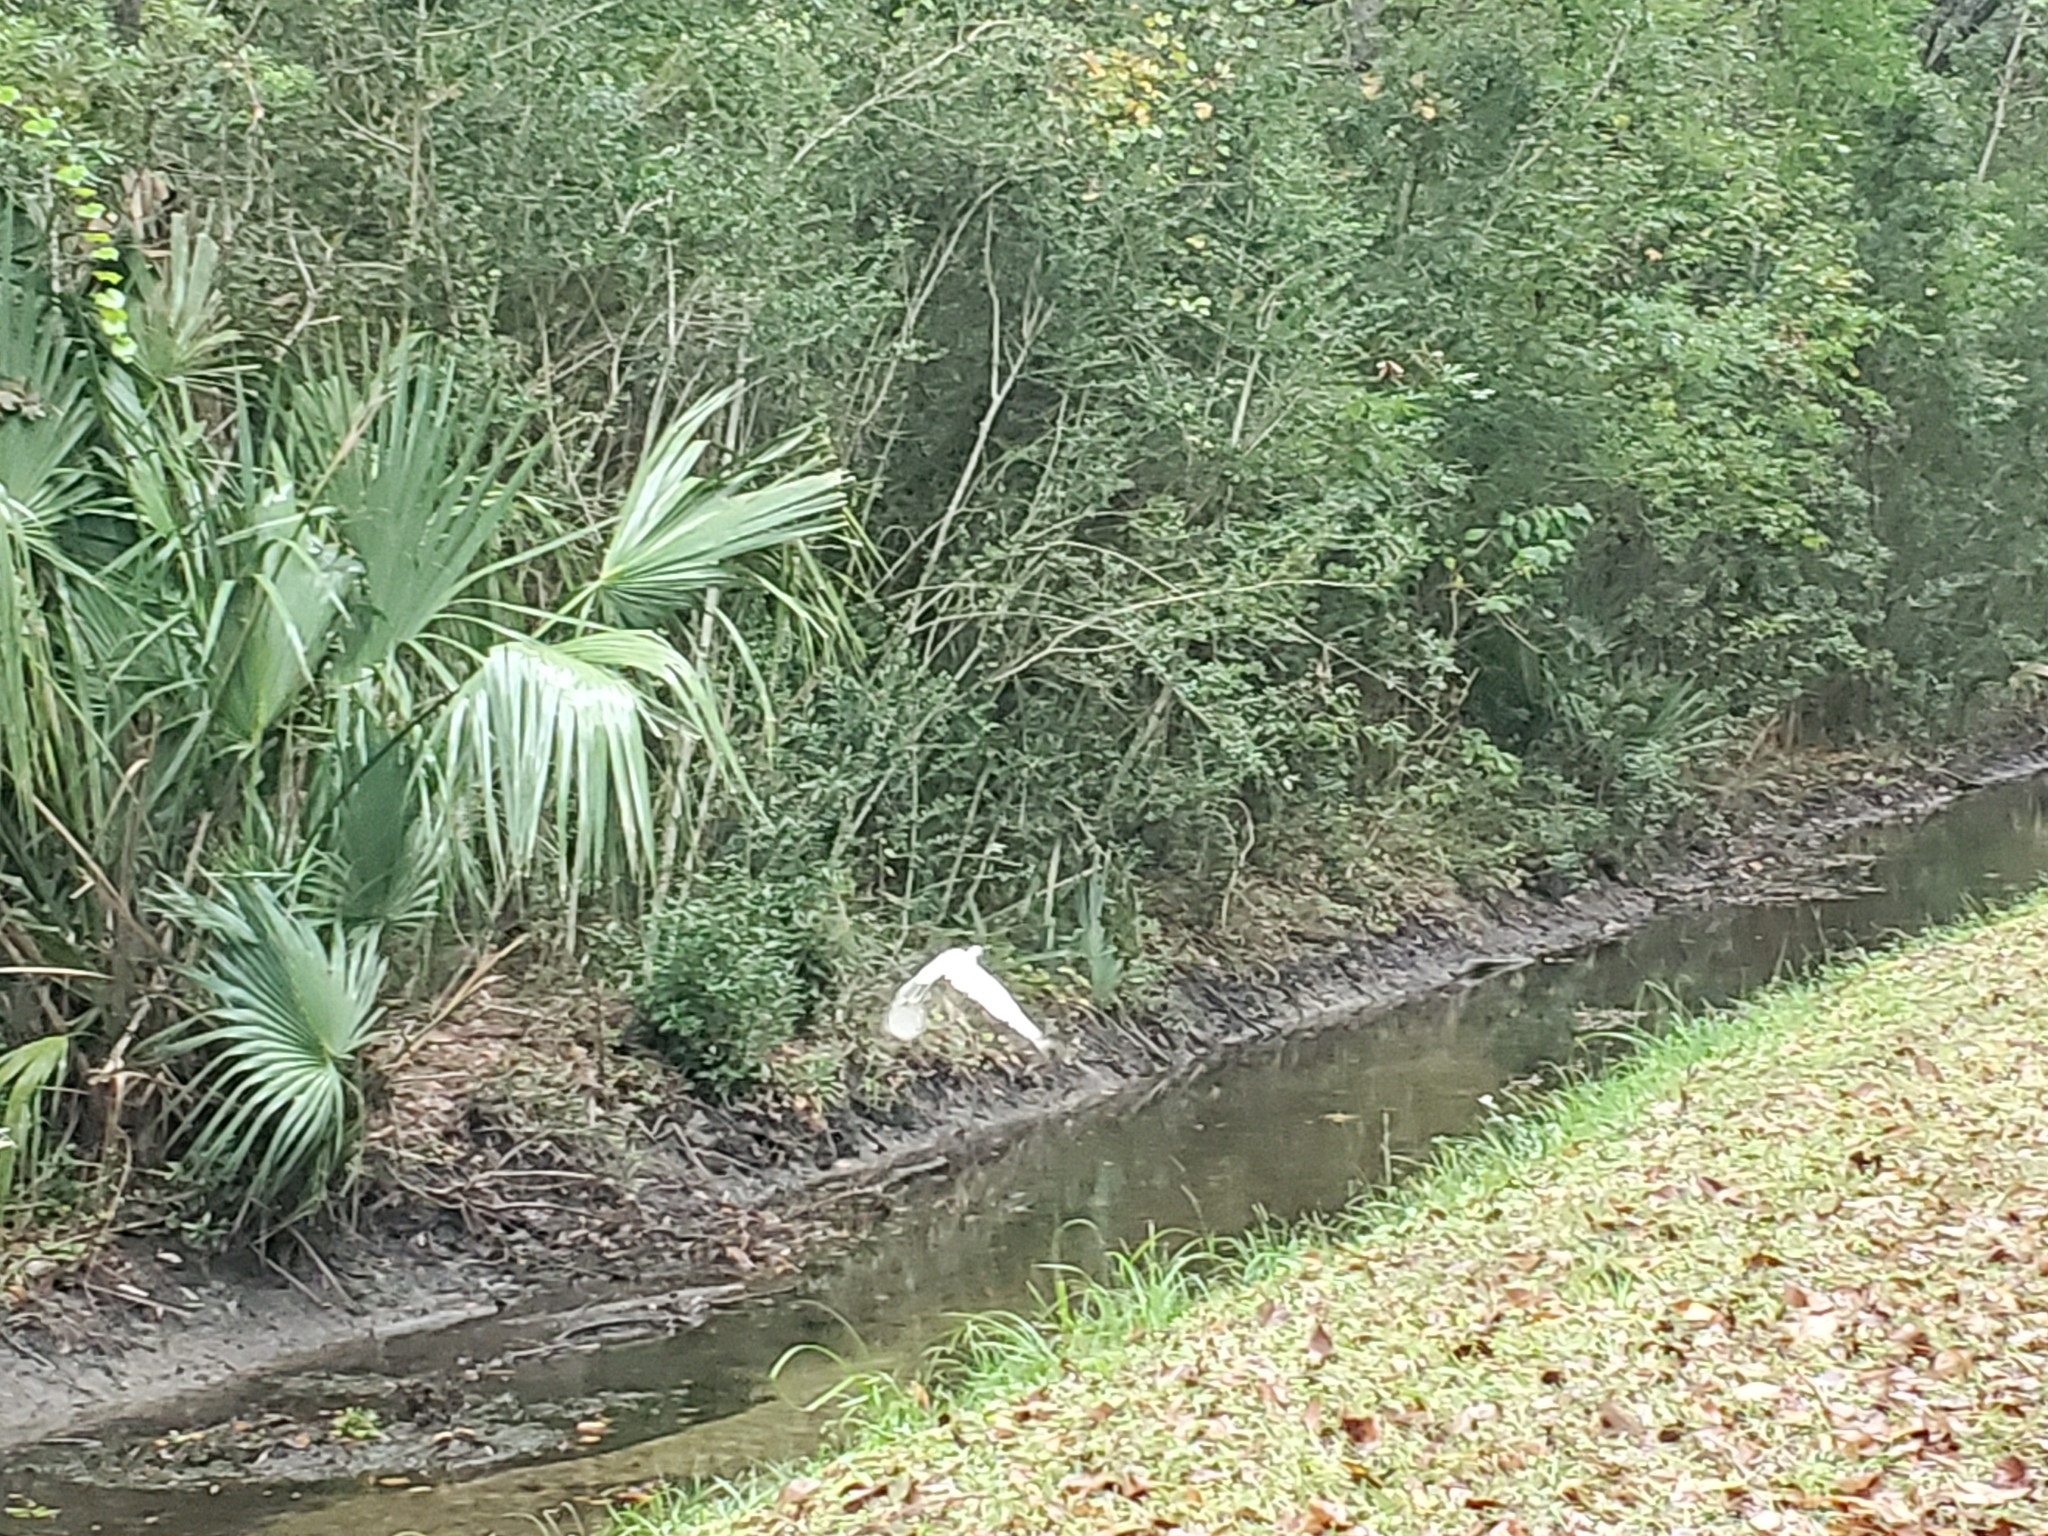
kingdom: Animalia
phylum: Chordata
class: Aves
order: Pelecaniformes
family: Ardeidae
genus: Egretta
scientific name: Egretta thula
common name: Snowy egret
